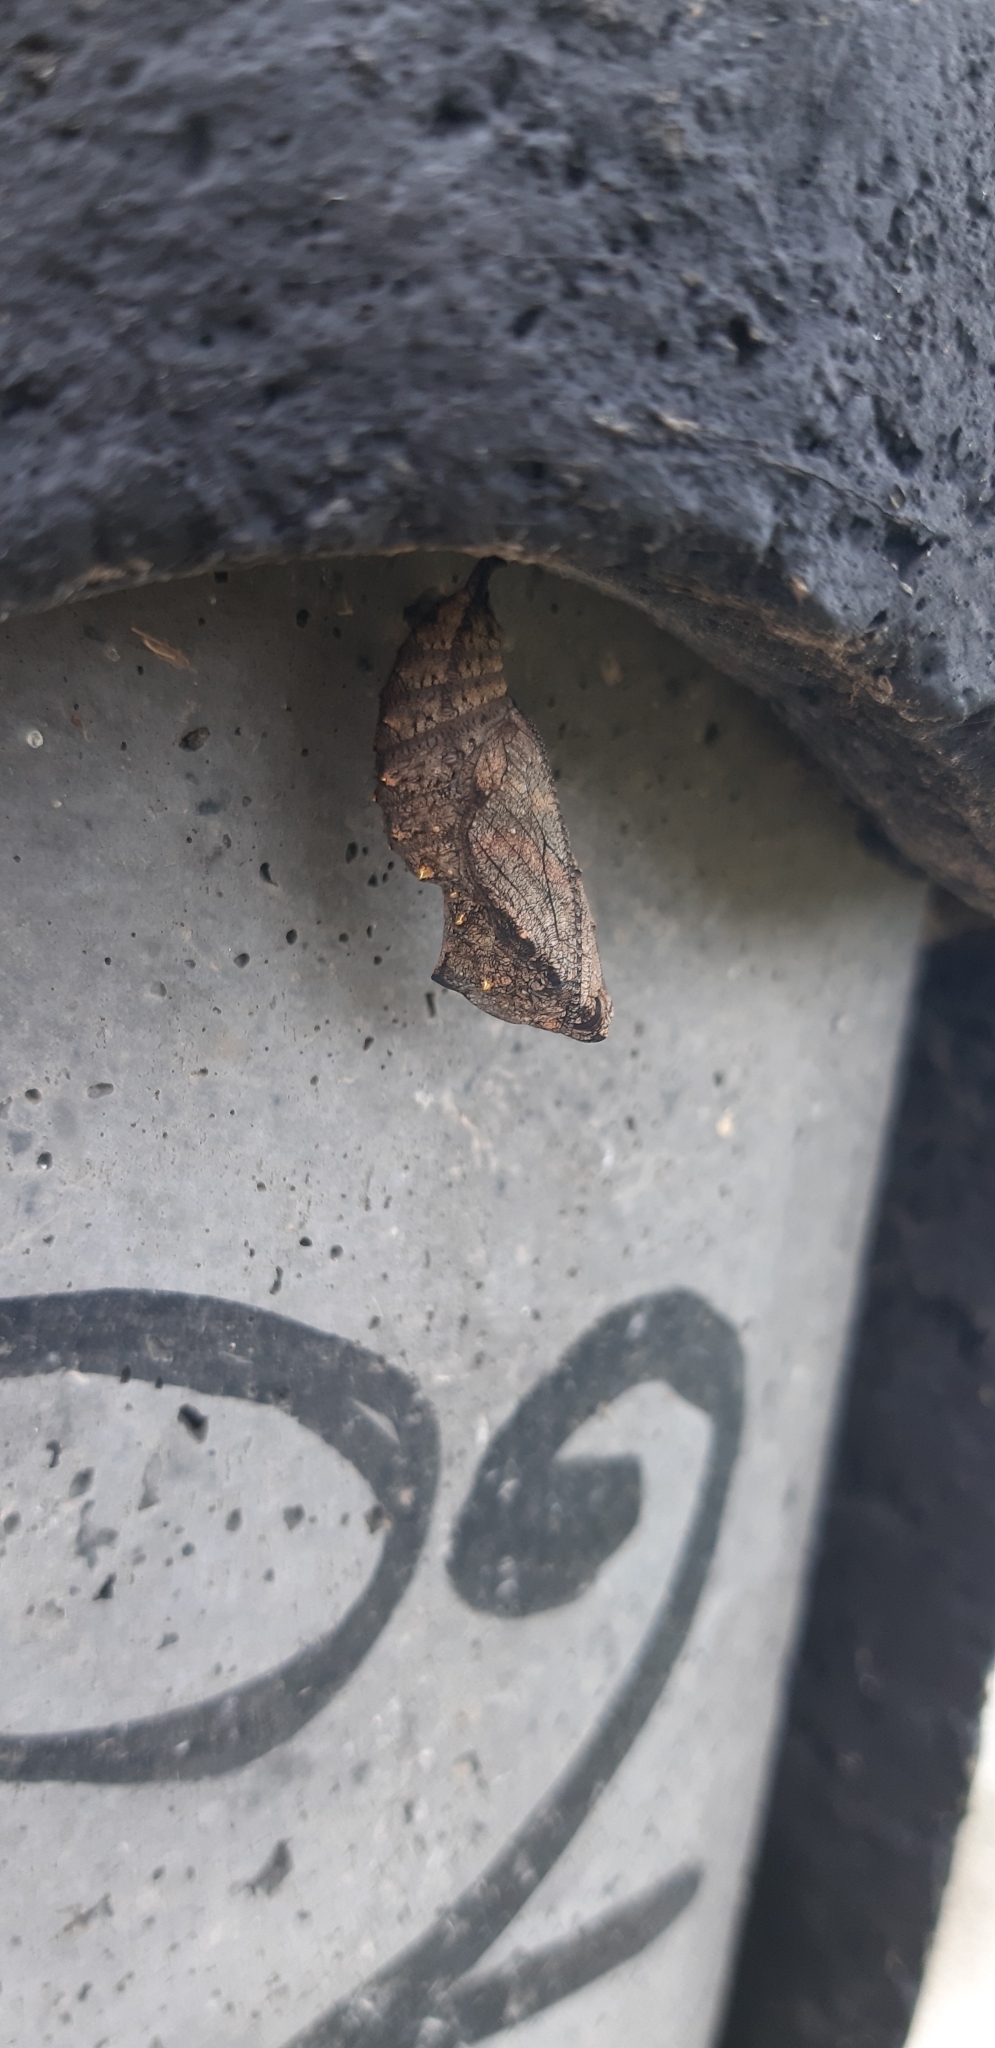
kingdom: Animalia
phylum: Arthropoda
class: Insecta
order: Lepidoptera
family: Nymphalidae
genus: Vanessa
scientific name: Vanessa atalanta
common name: Red admiral
